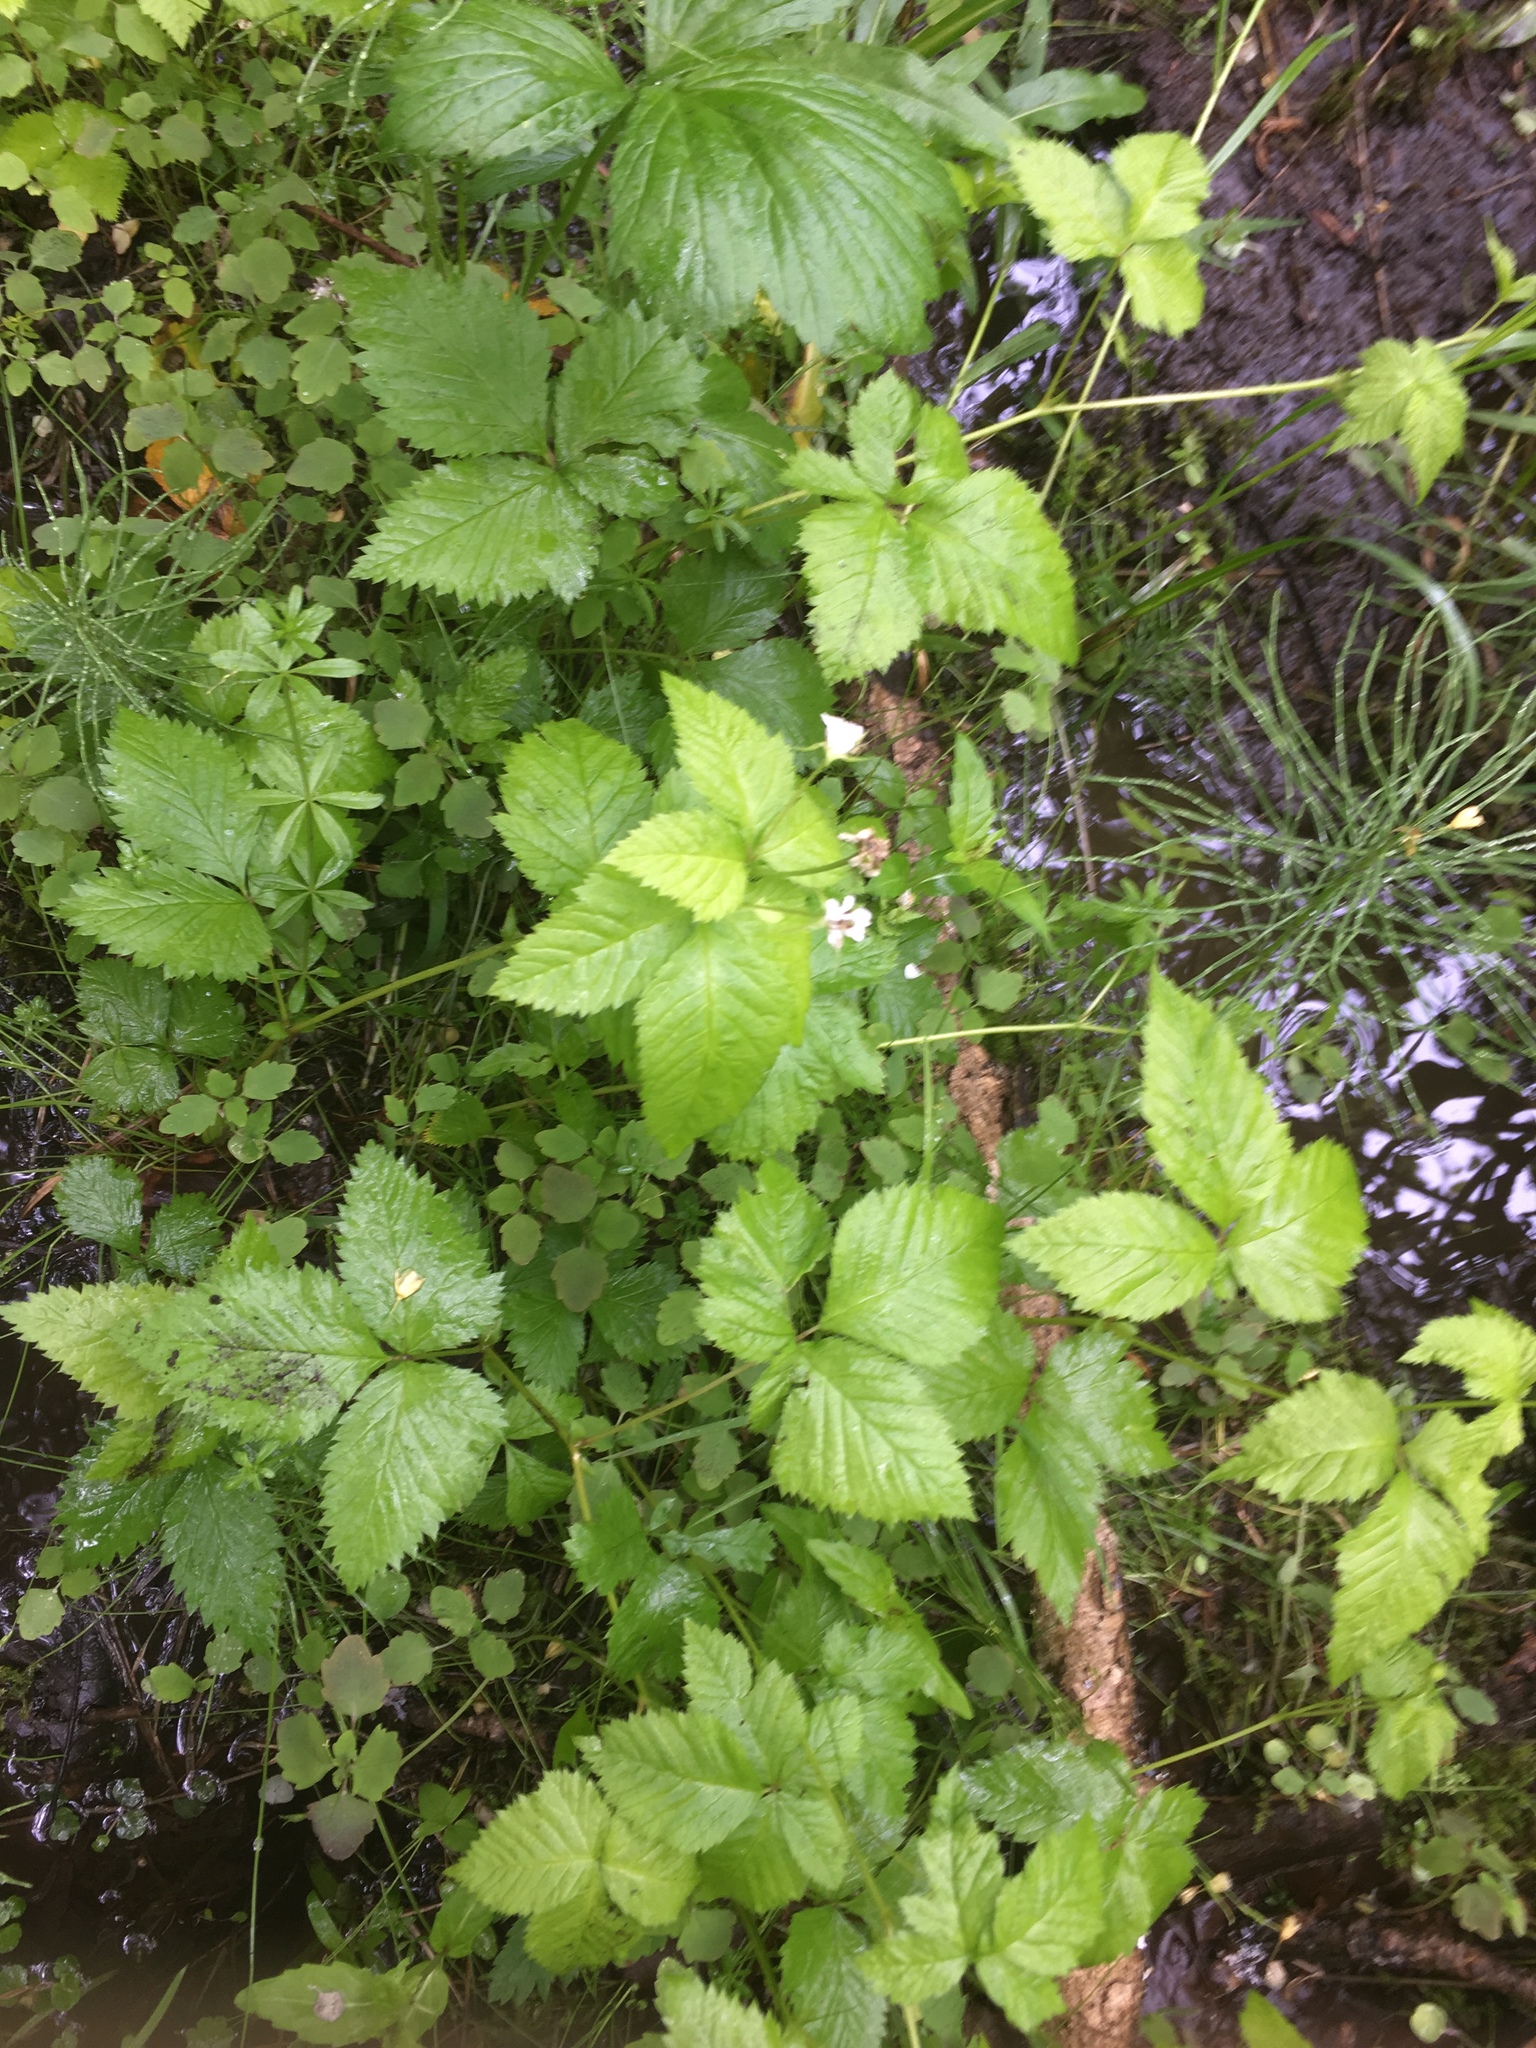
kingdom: Plantae
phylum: Tracheophyta
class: Magnoliopsida
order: Rosales
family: Rosaceae
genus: Rubus
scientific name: Rubus pubescens
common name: Dwarf raspberry
